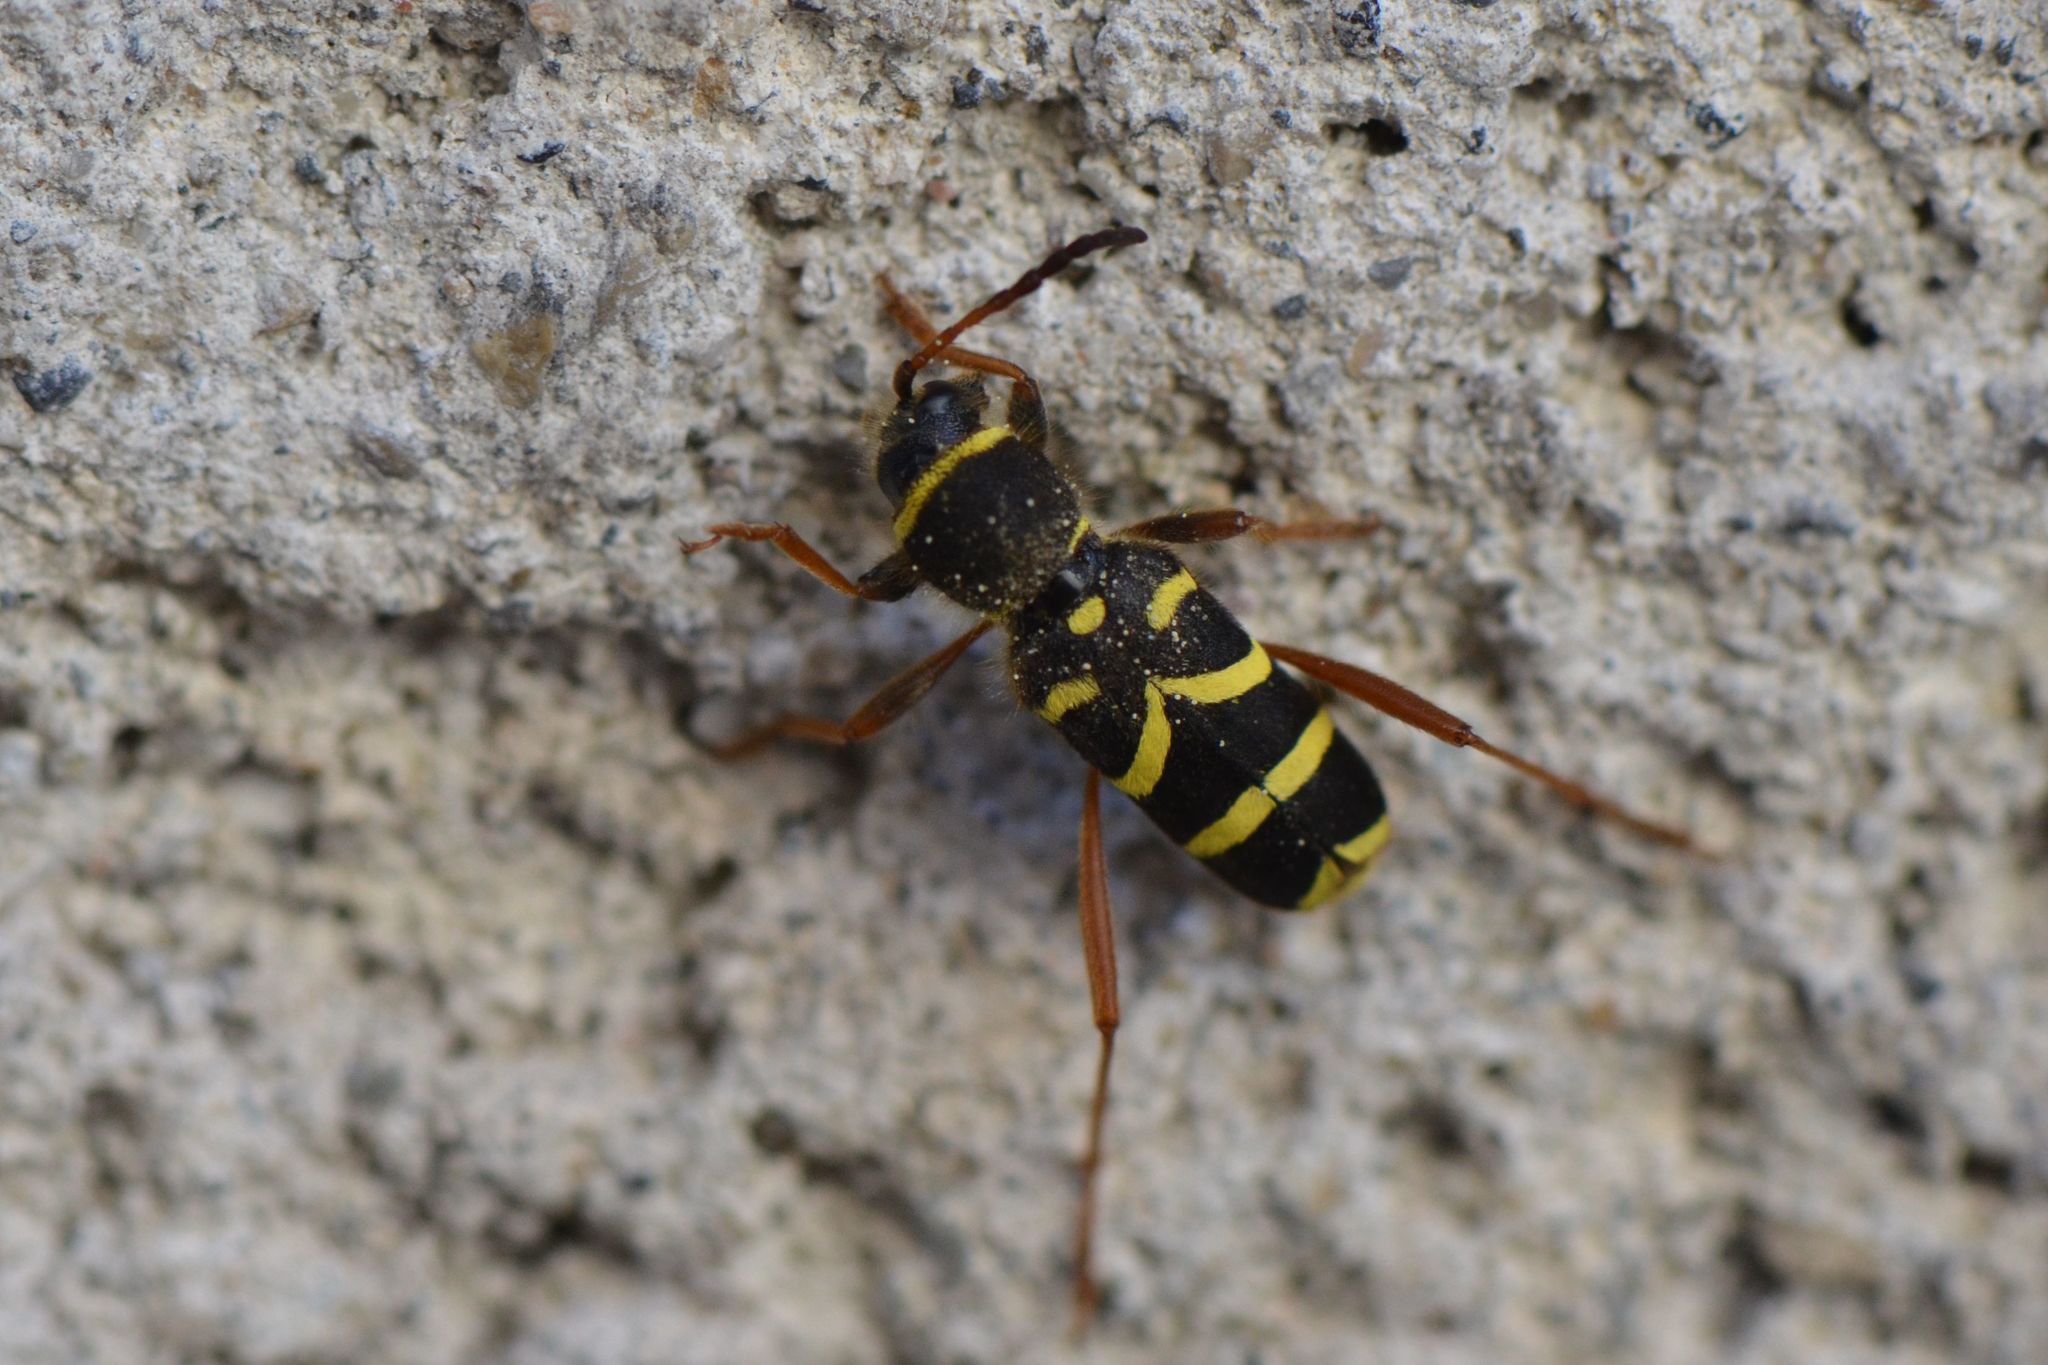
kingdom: Animalia
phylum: Arthropoda
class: Insecta
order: Coleoptera
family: Cerambycidae
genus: Clytus
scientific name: Clytus arietis
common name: Wasp beetle
